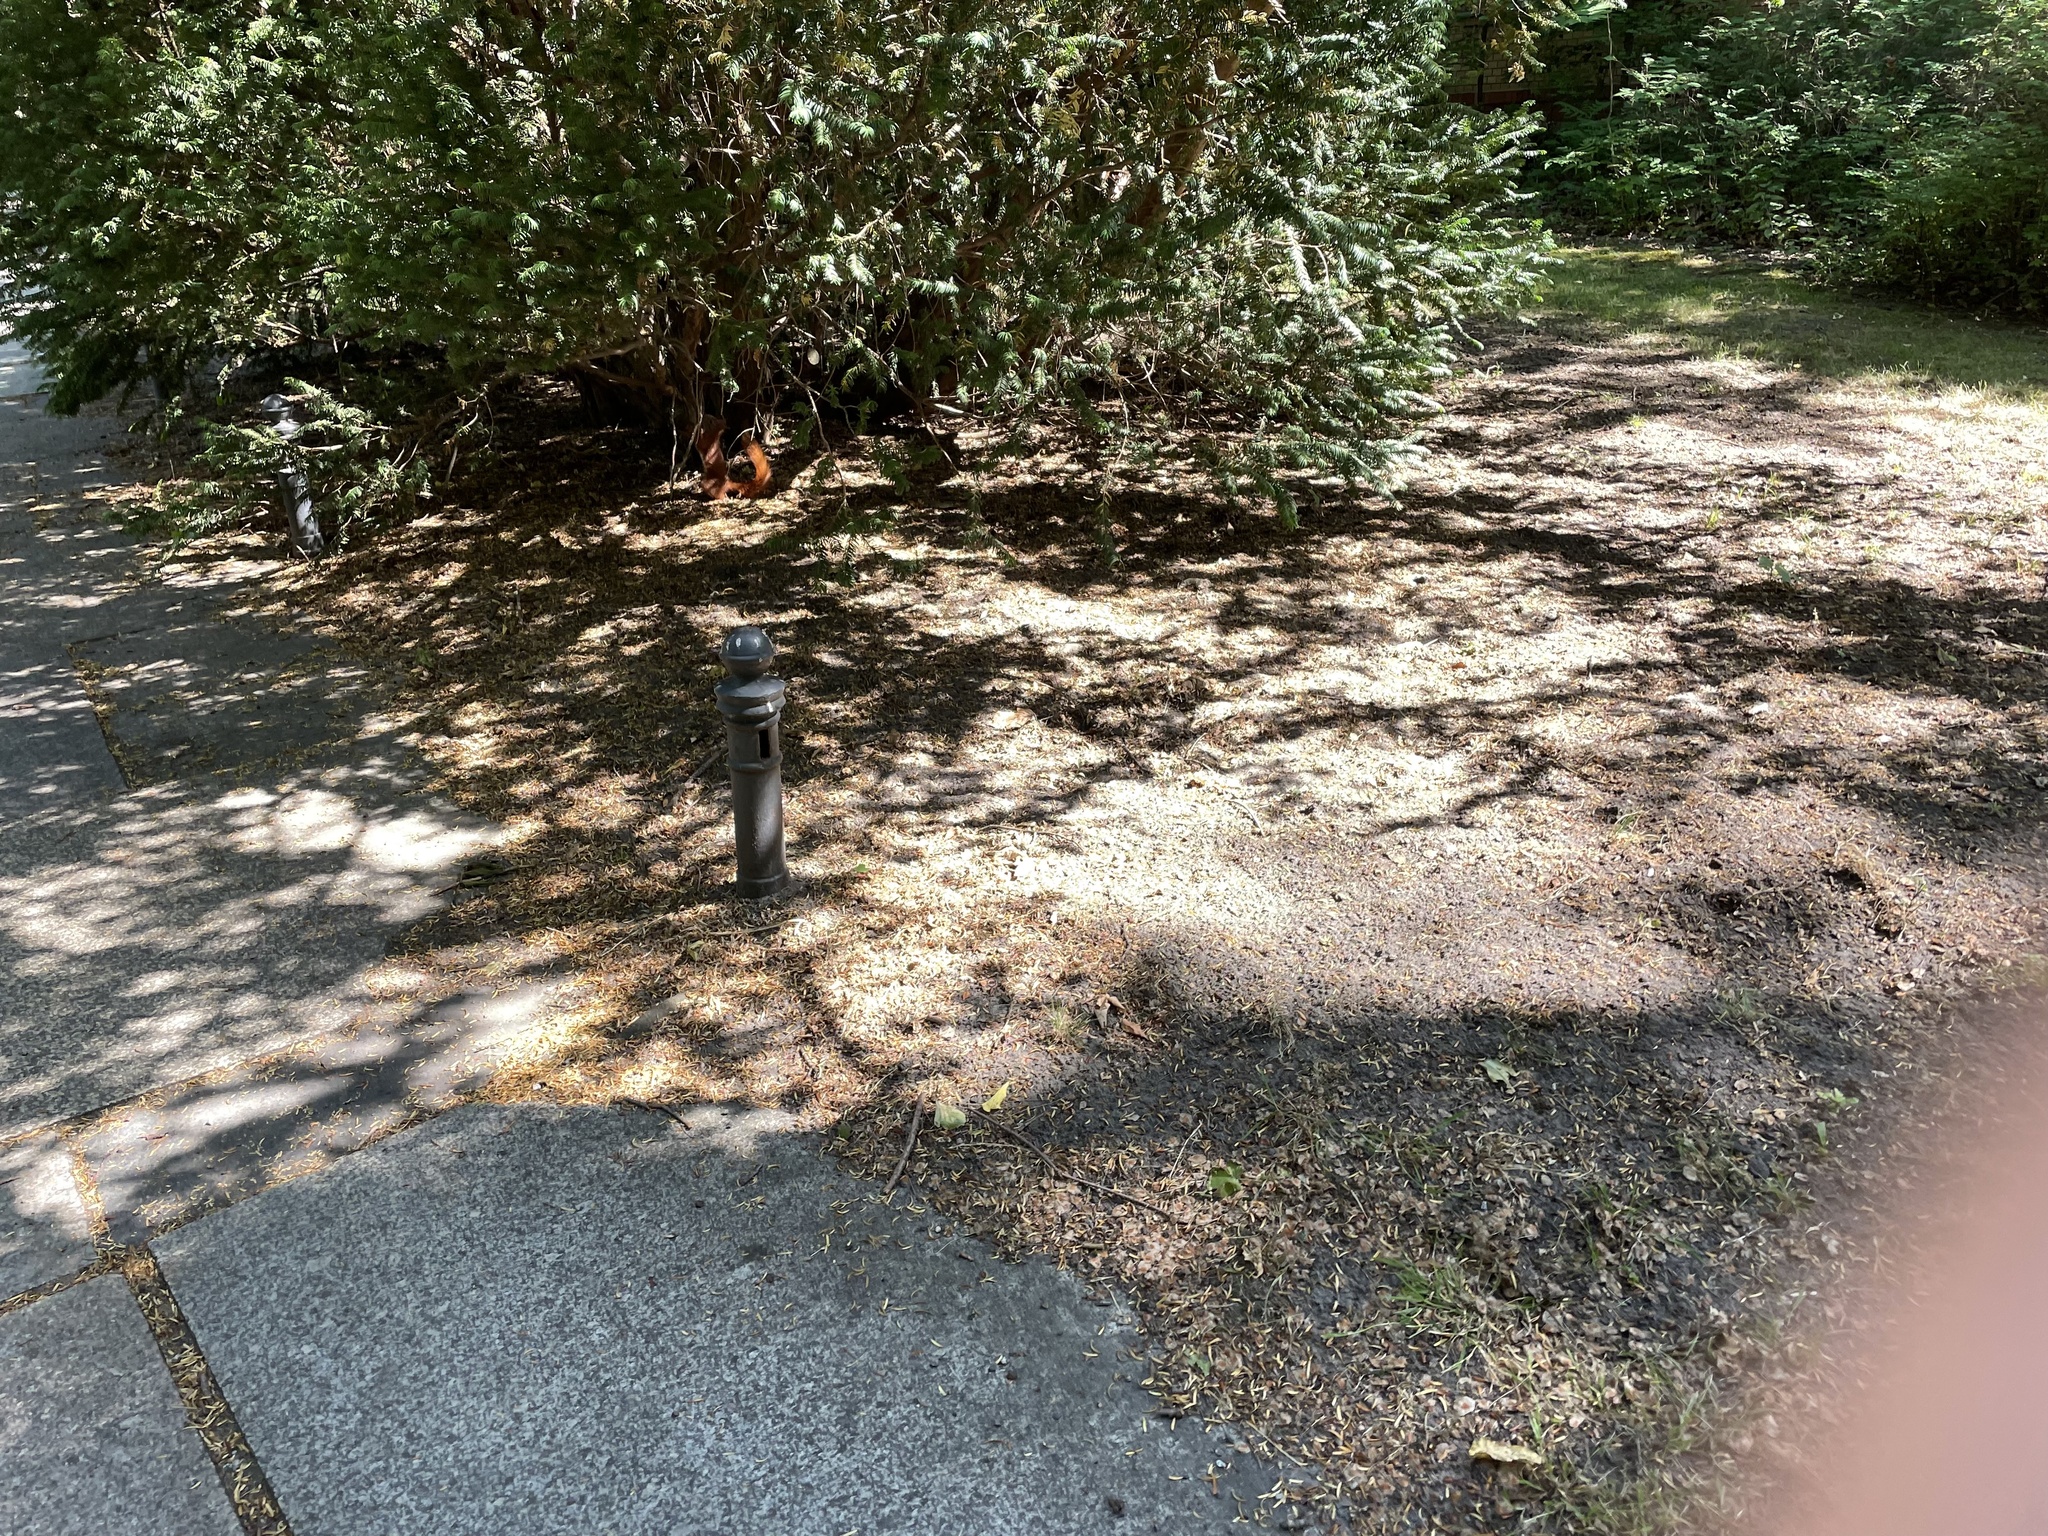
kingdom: Animalia
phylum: Chordata
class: Mammalia
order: Rodentia
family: Sciuridae
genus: Sciurus
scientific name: Sciurus vulgaris
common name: Eurasian red squirrel
